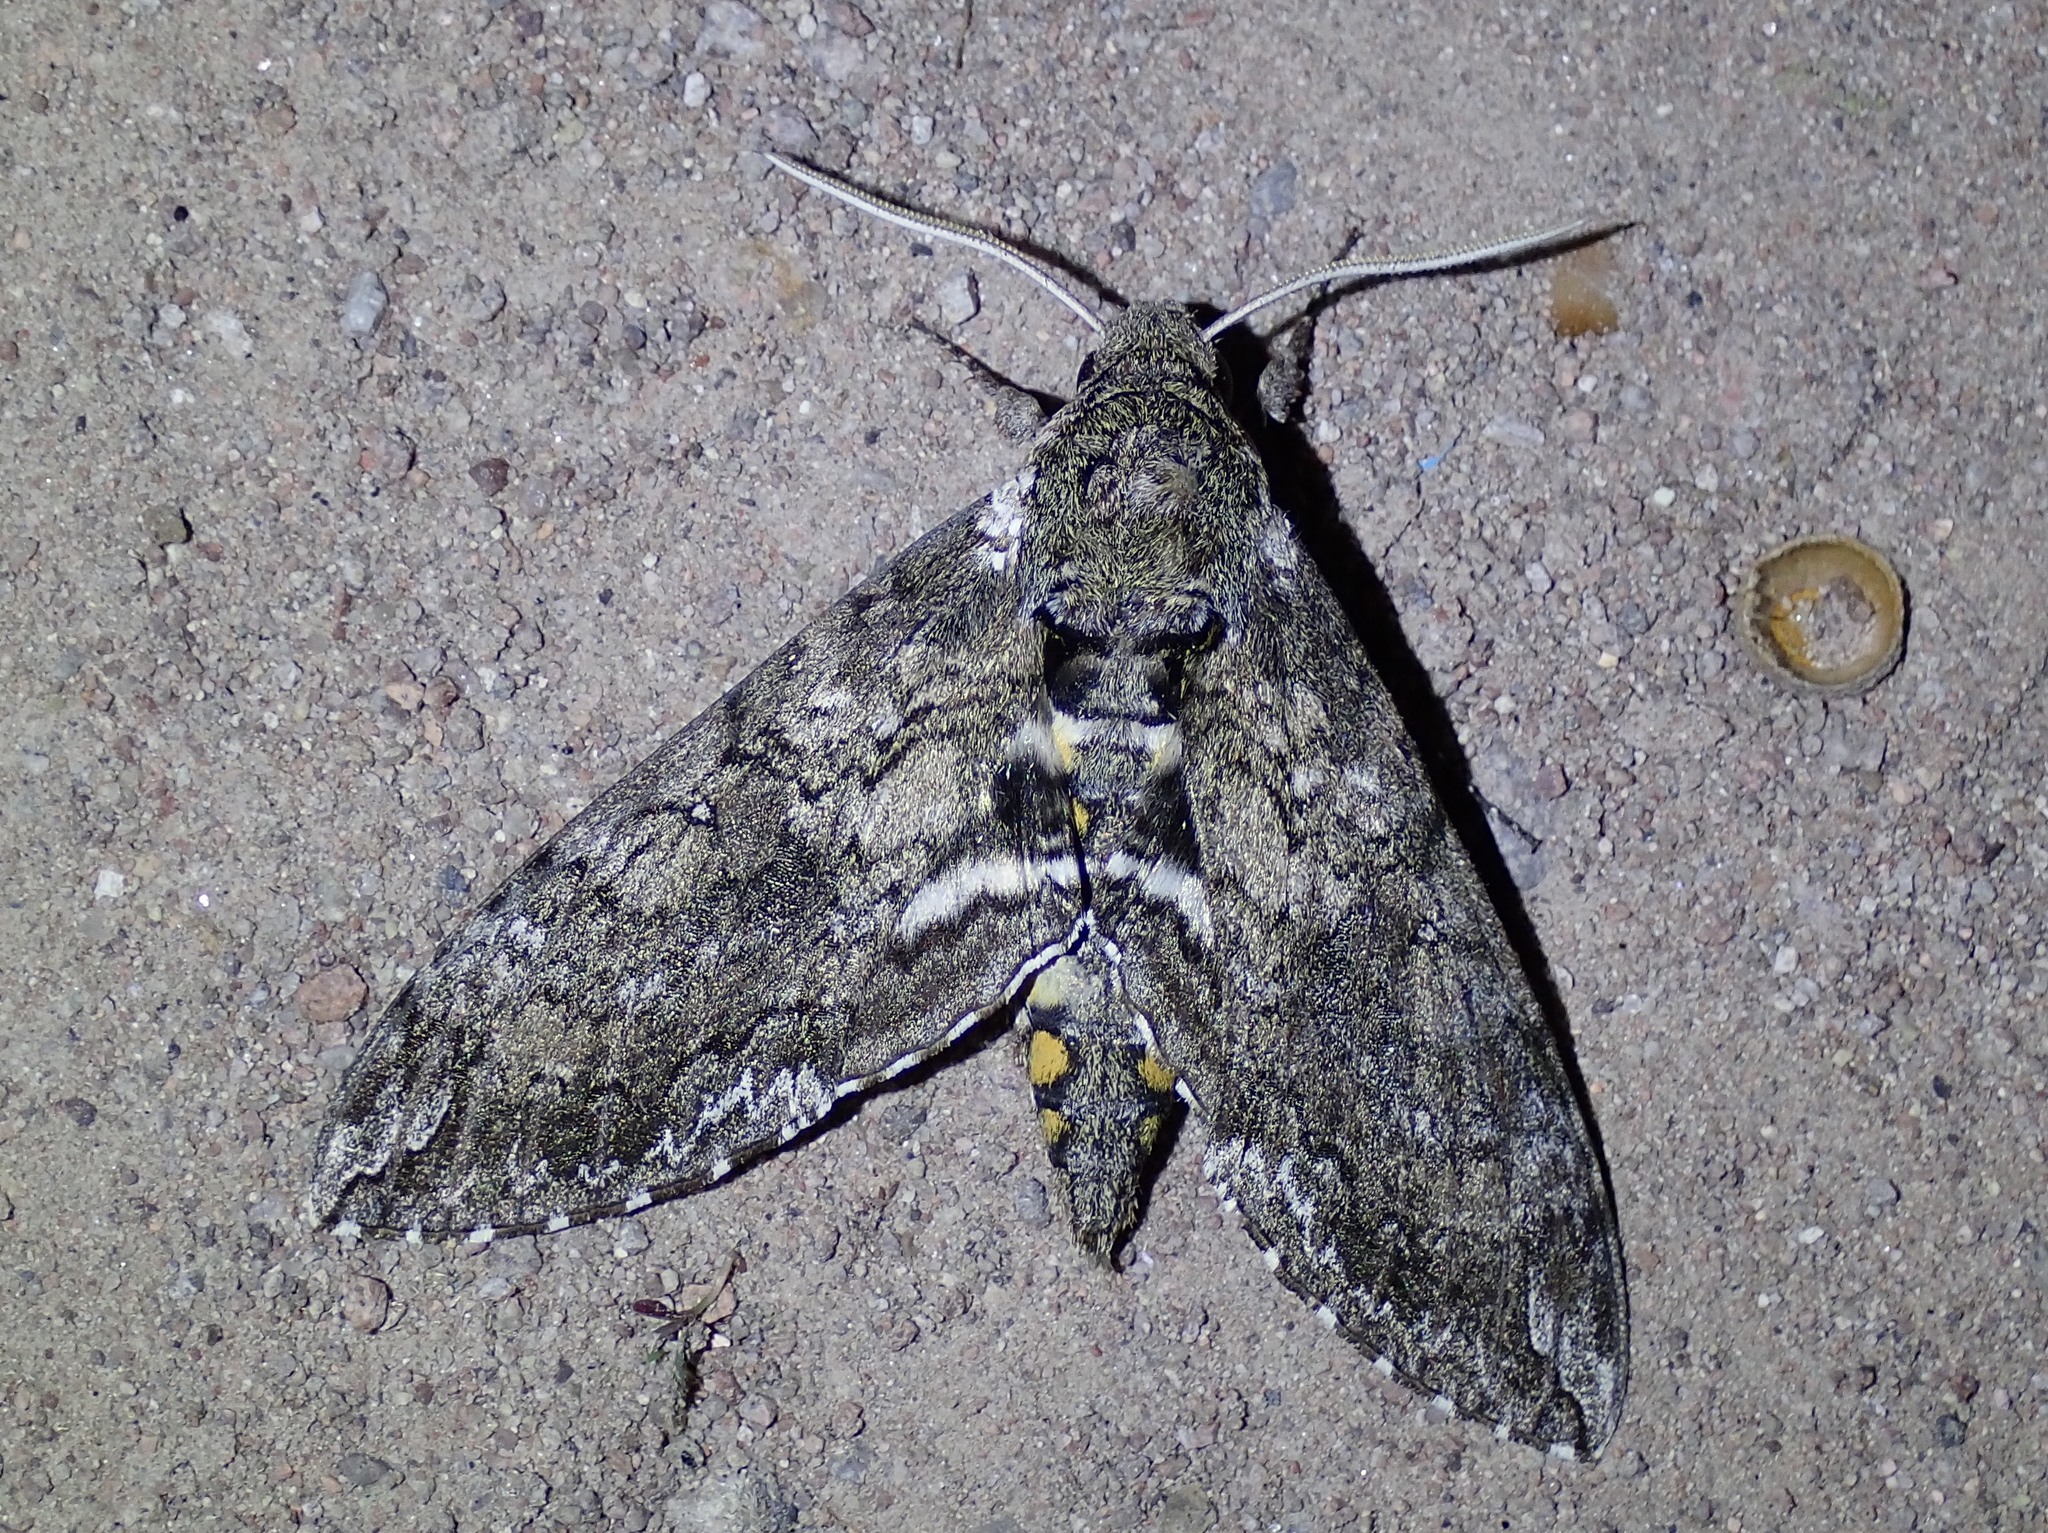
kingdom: Animalia
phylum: Arthropoda
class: Insecta
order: Lepidoptera
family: Sphingidae
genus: Manduca
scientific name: Manduca sexta
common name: Carolina sphinx
